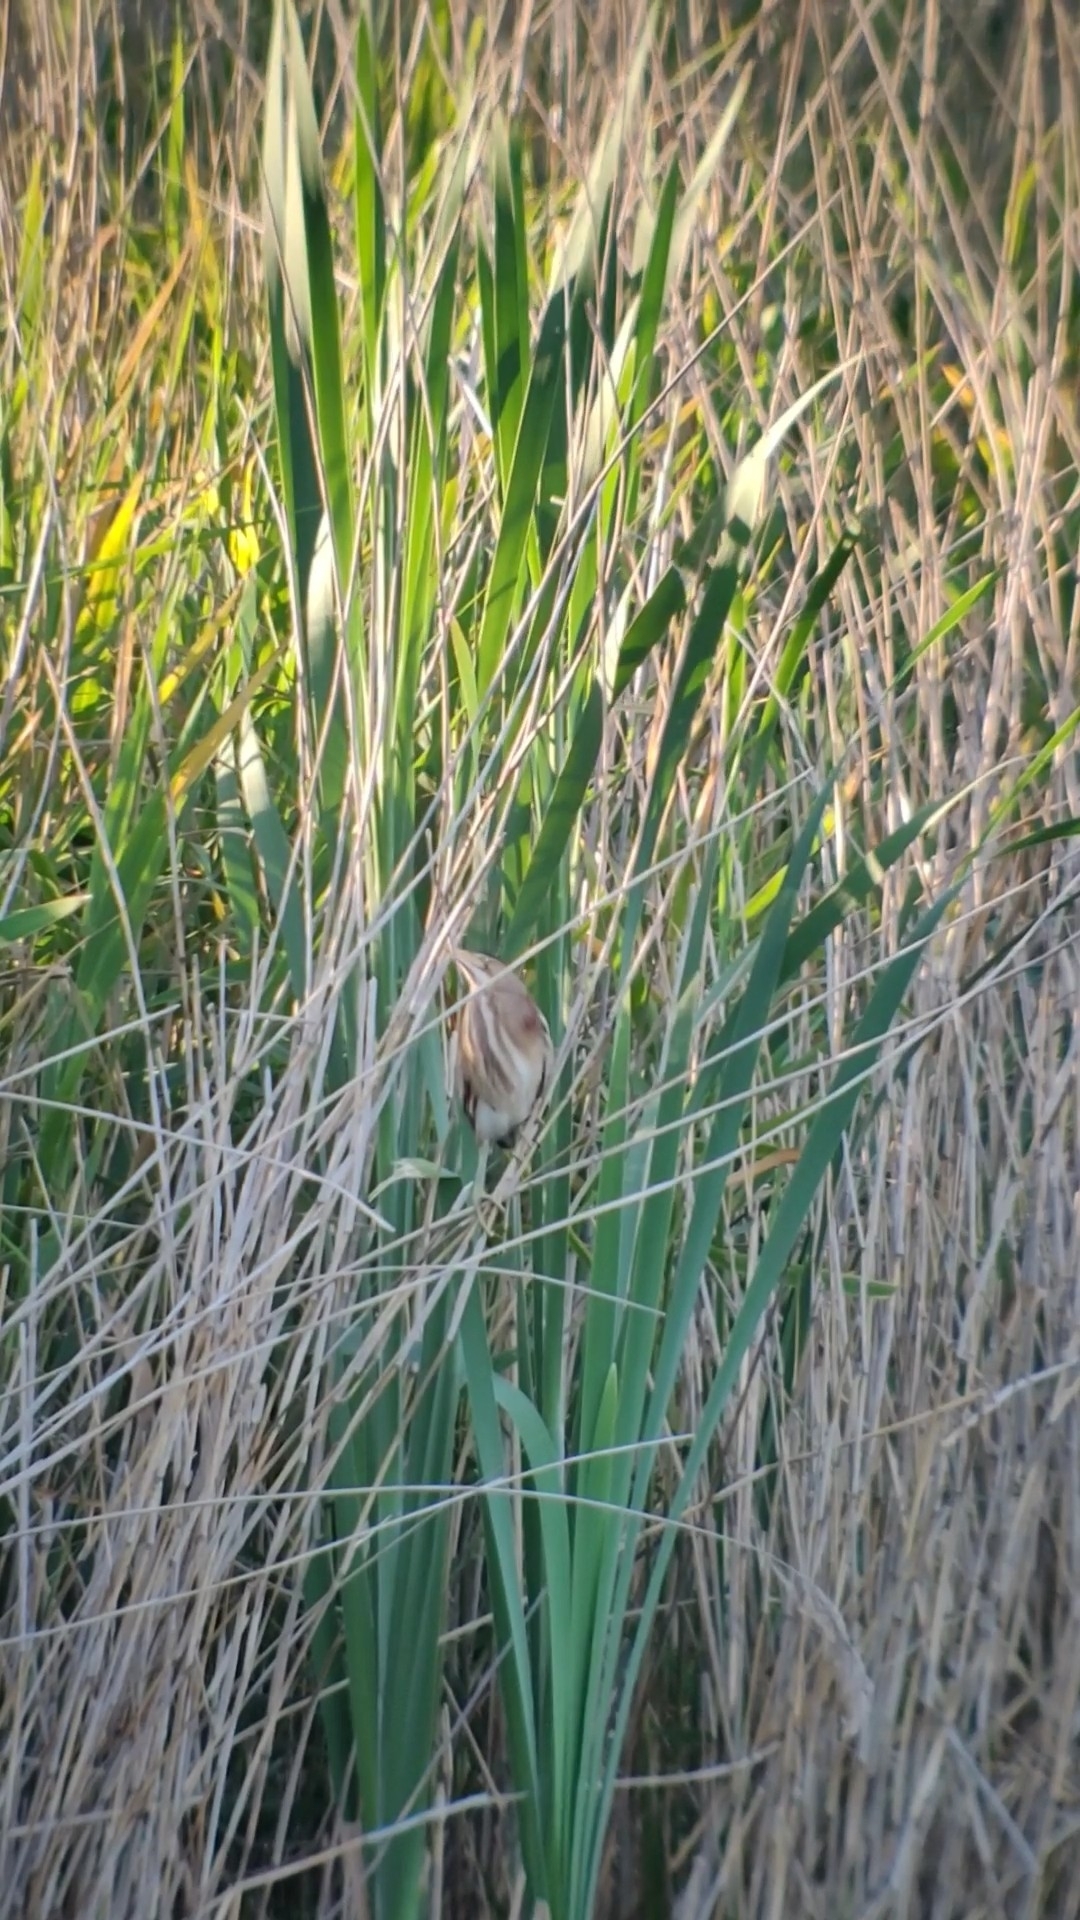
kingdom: Animalia
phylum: Chordata
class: Aves
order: Pelecaniformes
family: Ardeidae
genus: Ixobrychus
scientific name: Ixobrychus minutus
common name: Little bittern
